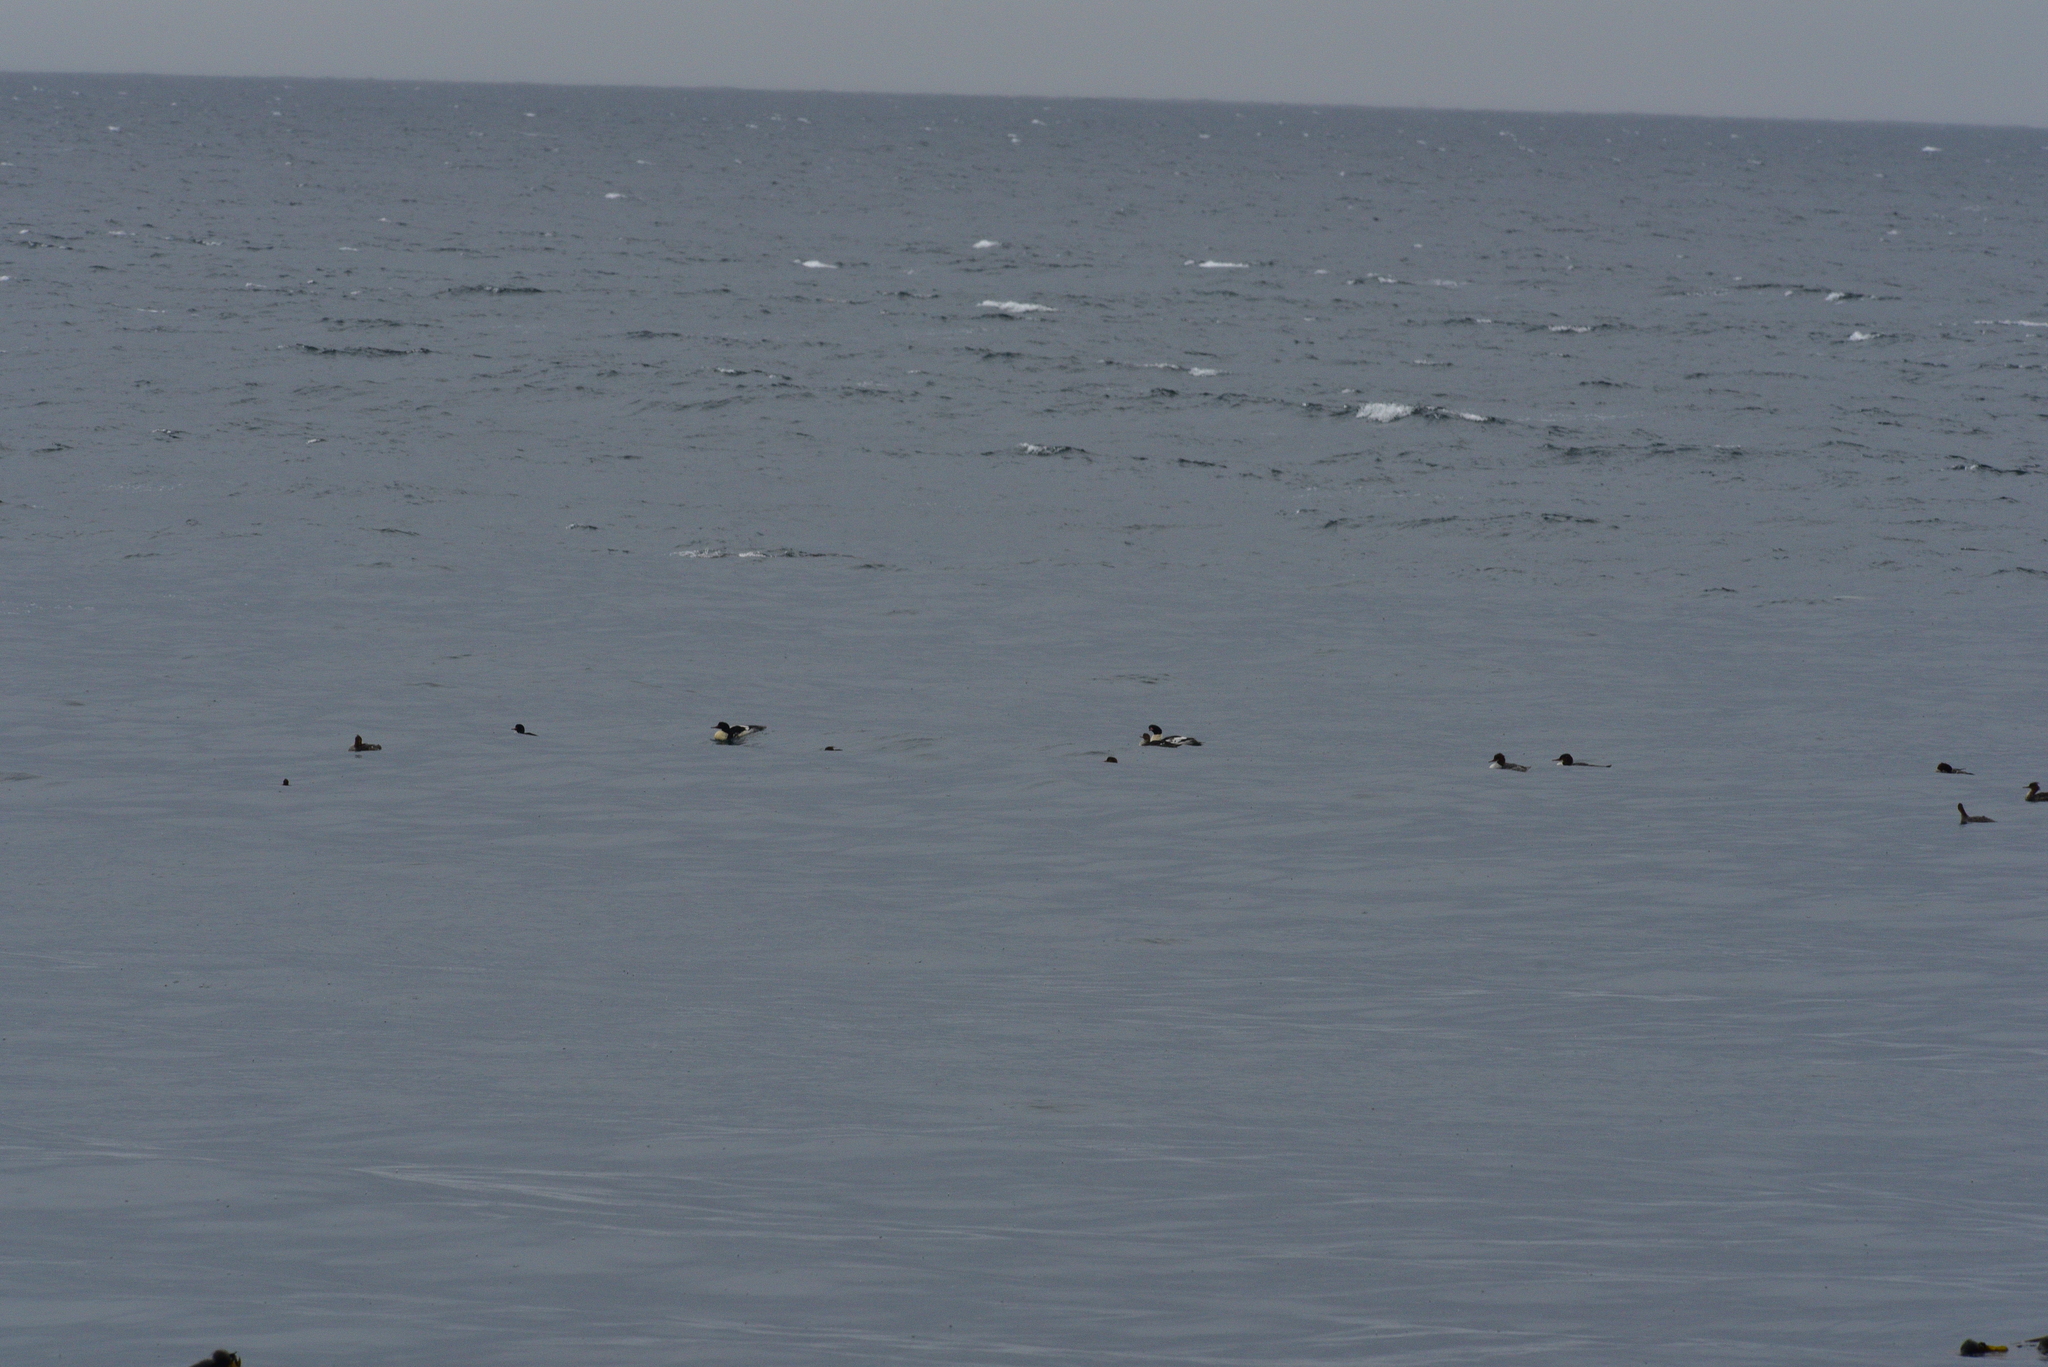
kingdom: Animalia
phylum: Chordata
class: Aves
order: Anseriformes
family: Anatidae
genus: Mergus
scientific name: Mergus merganser
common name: Common merganser
